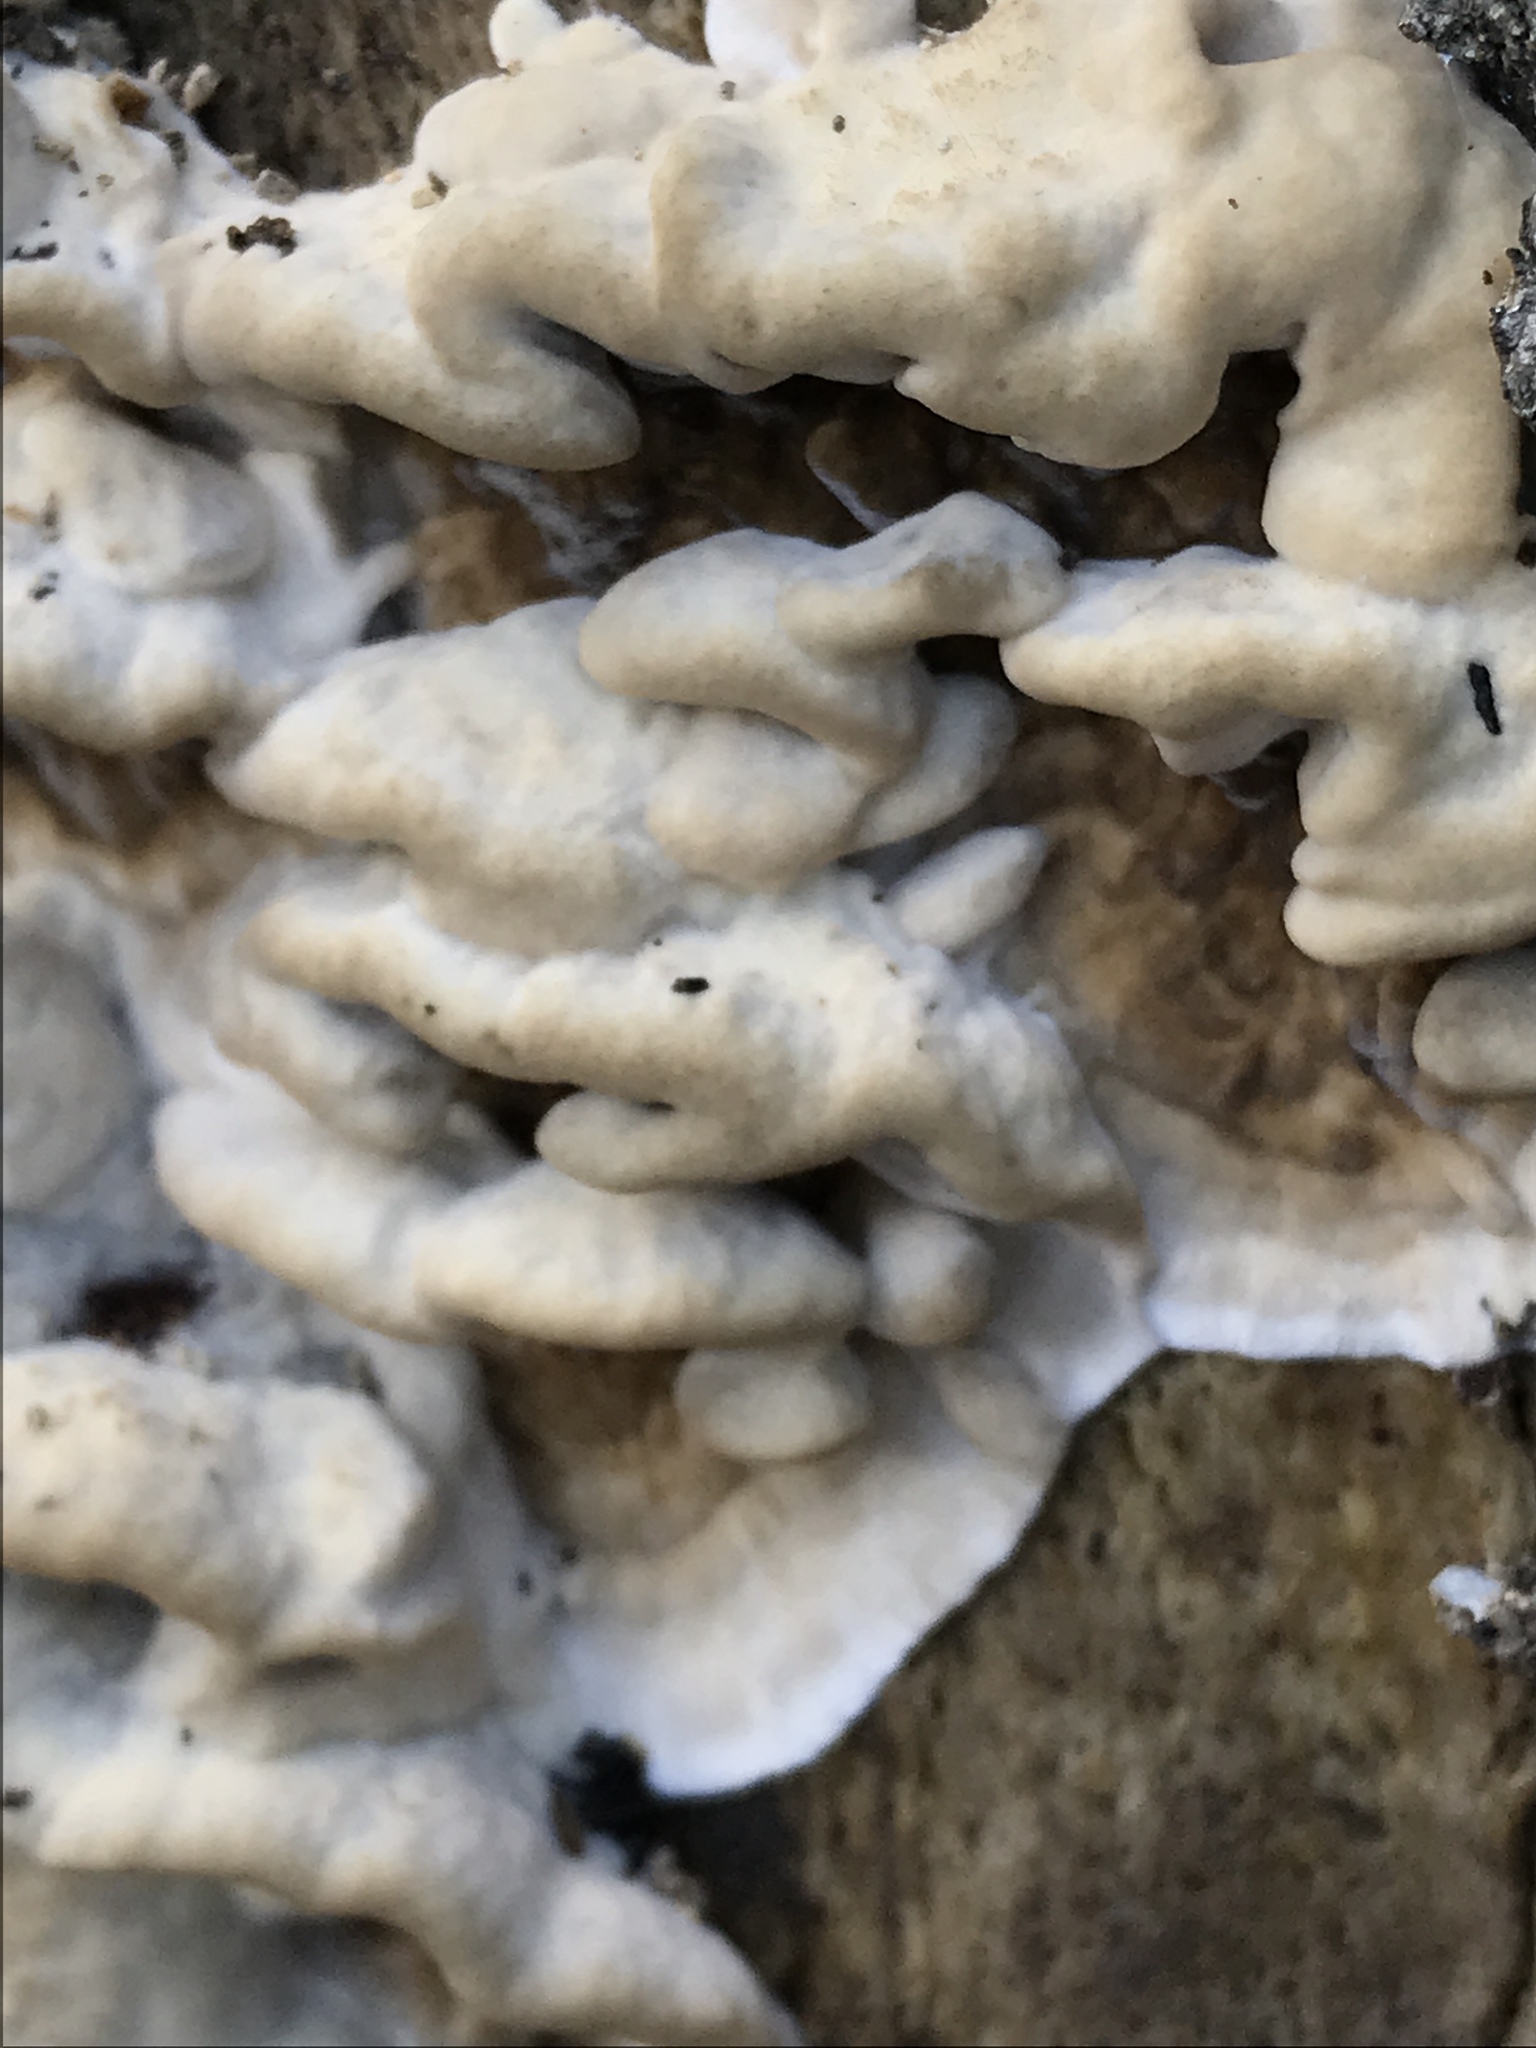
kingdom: Fungi
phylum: Basidiomycota
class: Agaricomycetes
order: Polyporales
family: Phanerochaetaceae
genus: Bjerkandera
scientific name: Bjerkandera adusta
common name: Smoky bracket
